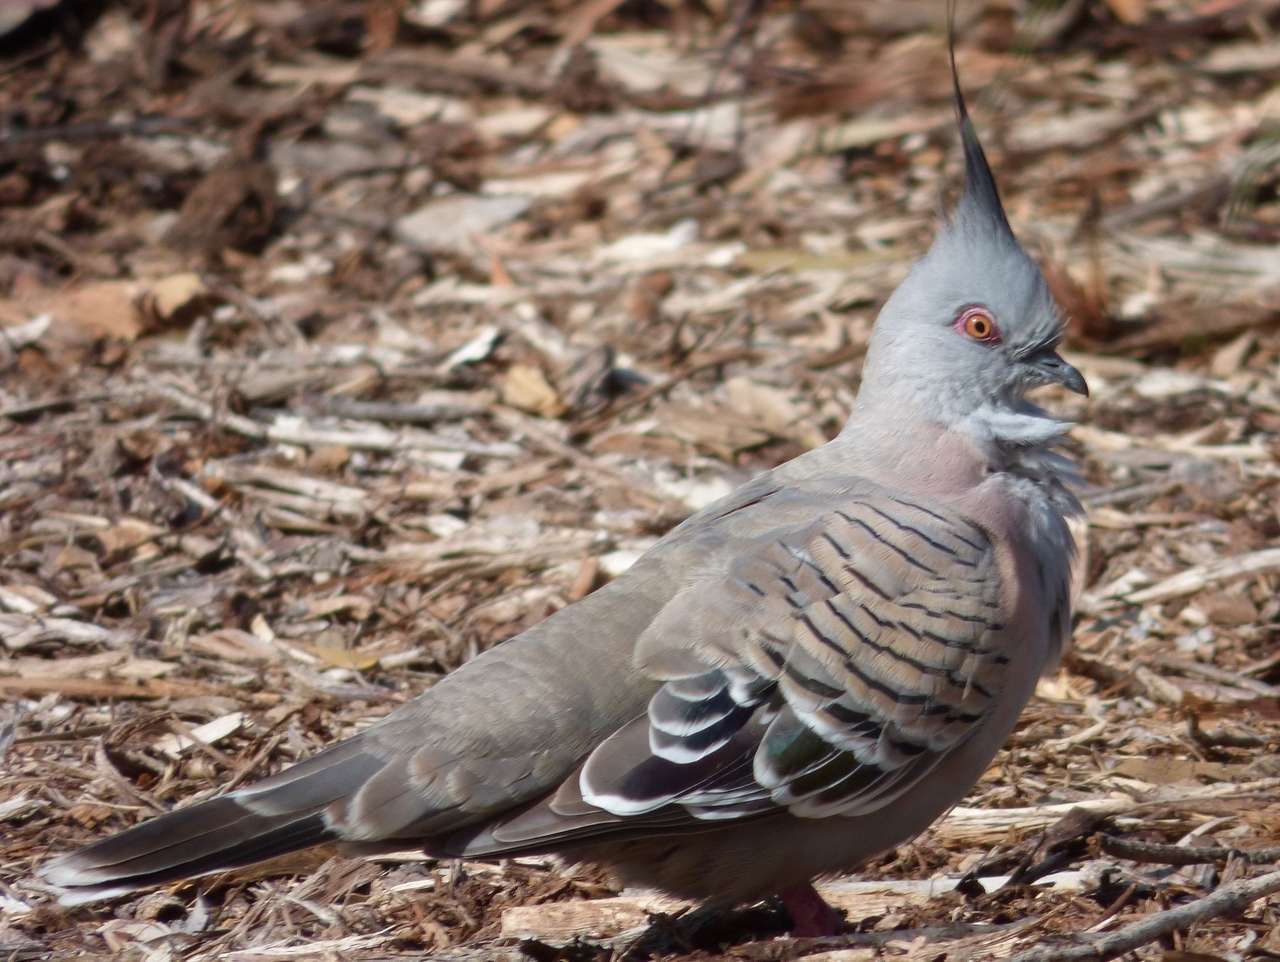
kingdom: Animalia
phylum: Chordata
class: Aves
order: Columbiformes
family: Columbidae
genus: Ocyphaps
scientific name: Ocyphaps lophotes
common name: Crested pigeon
